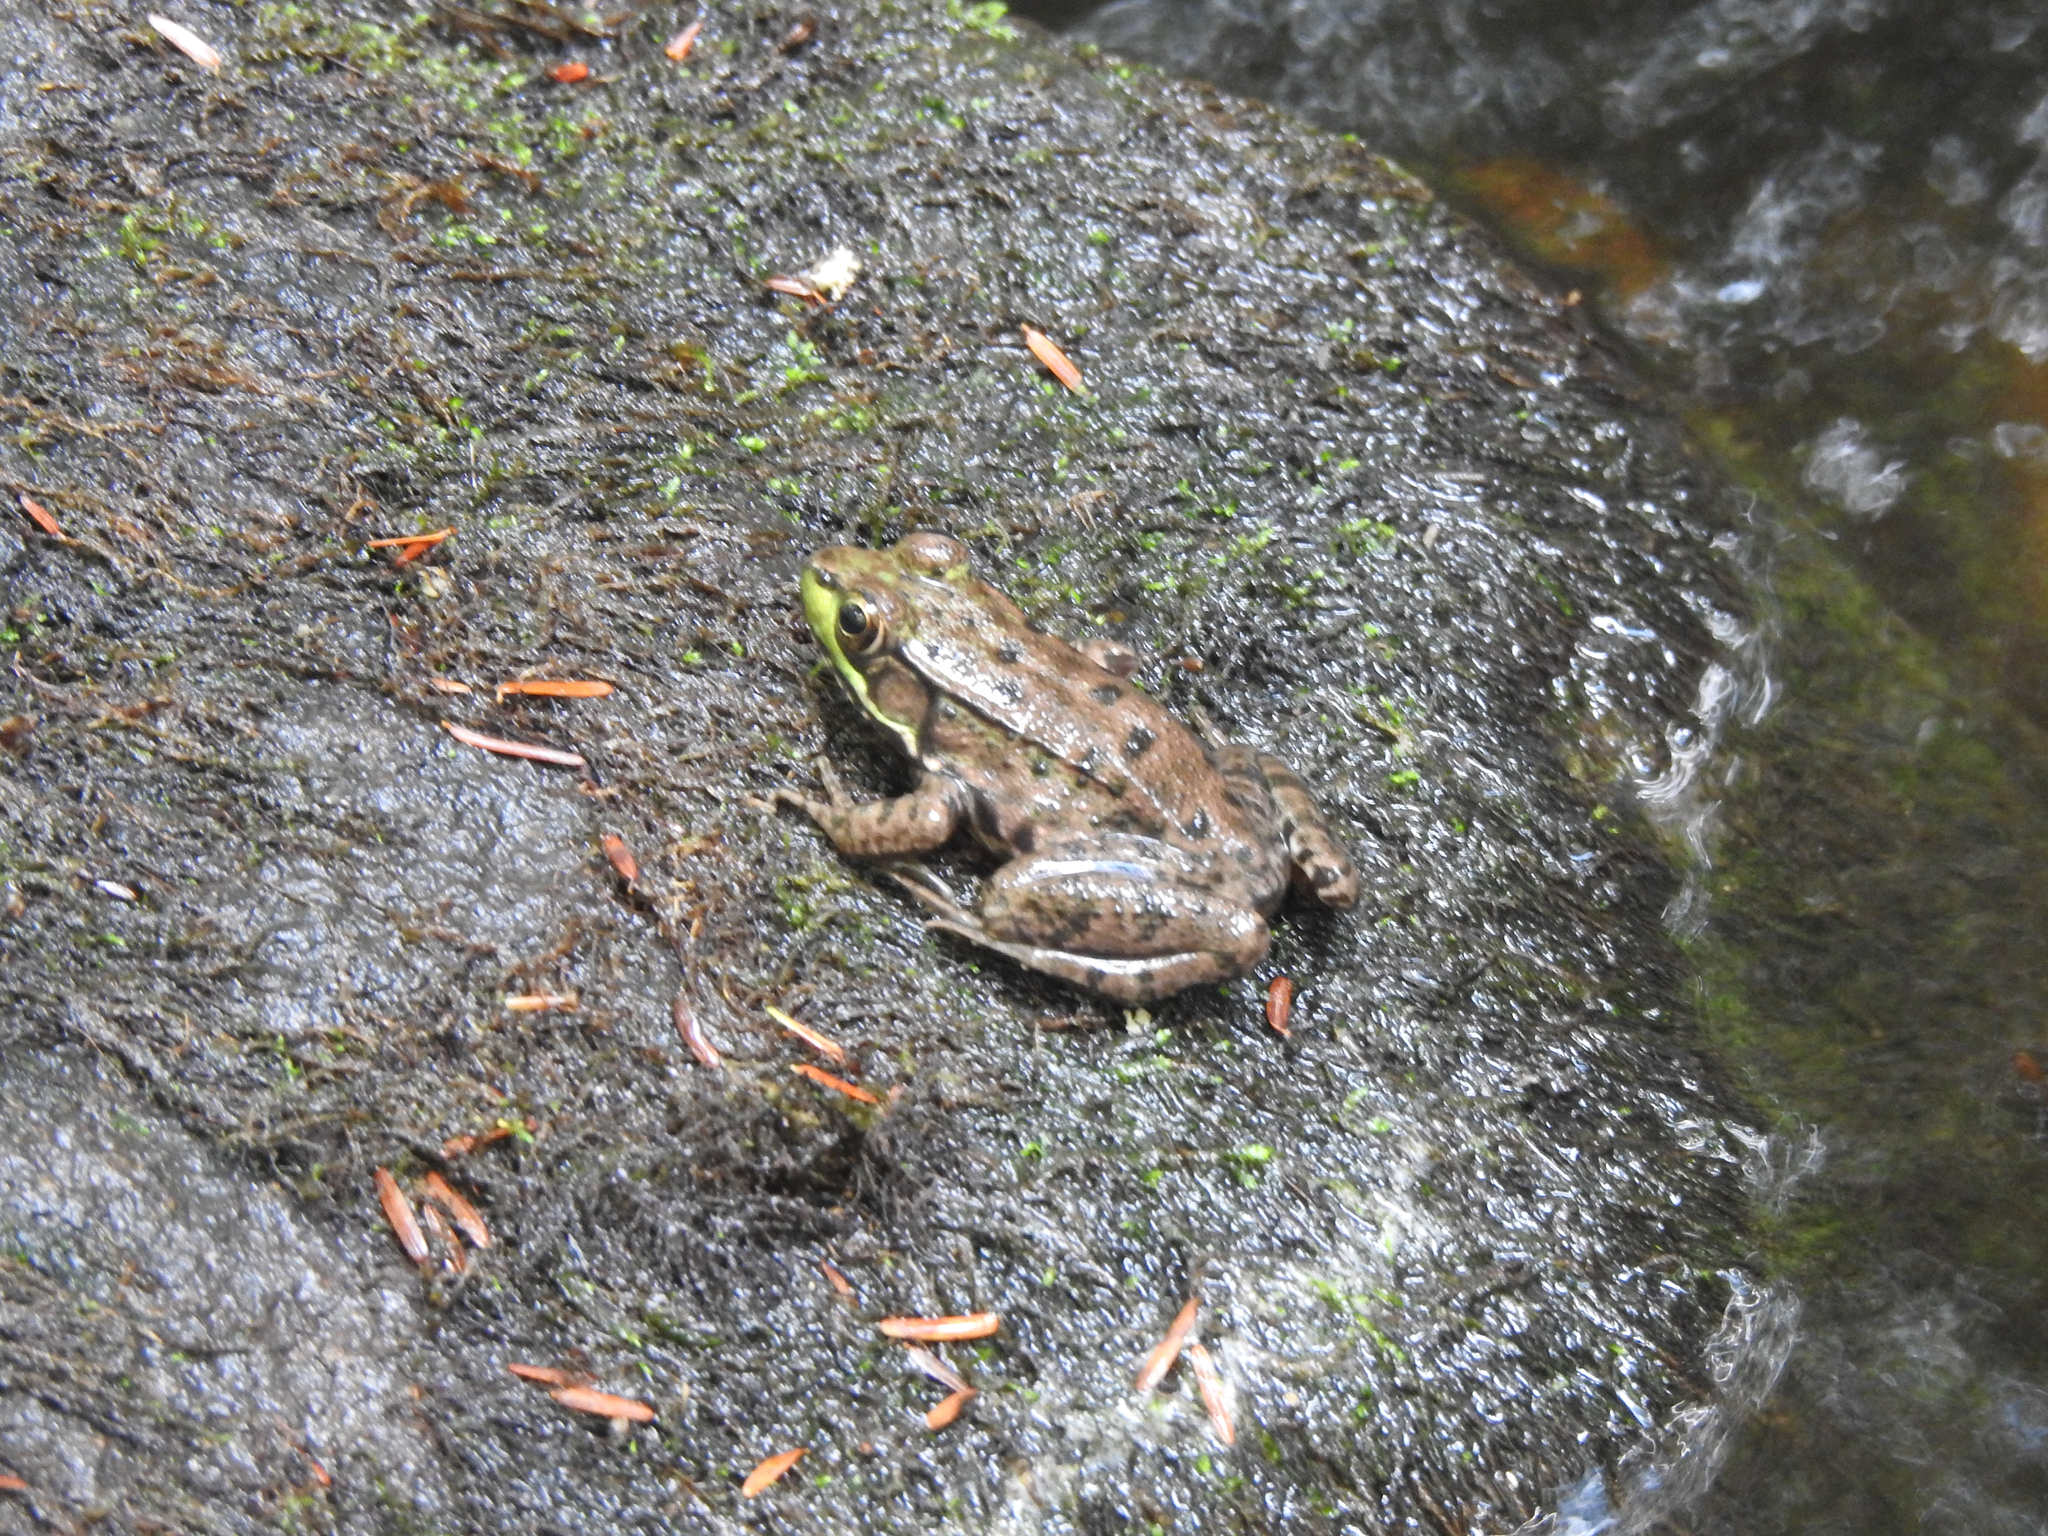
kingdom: Animalia
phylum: Chordata
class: Amphibia
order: Anura
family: Ranidae
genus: Lithobates
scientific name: Lithobates clamitans
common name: Green frog
